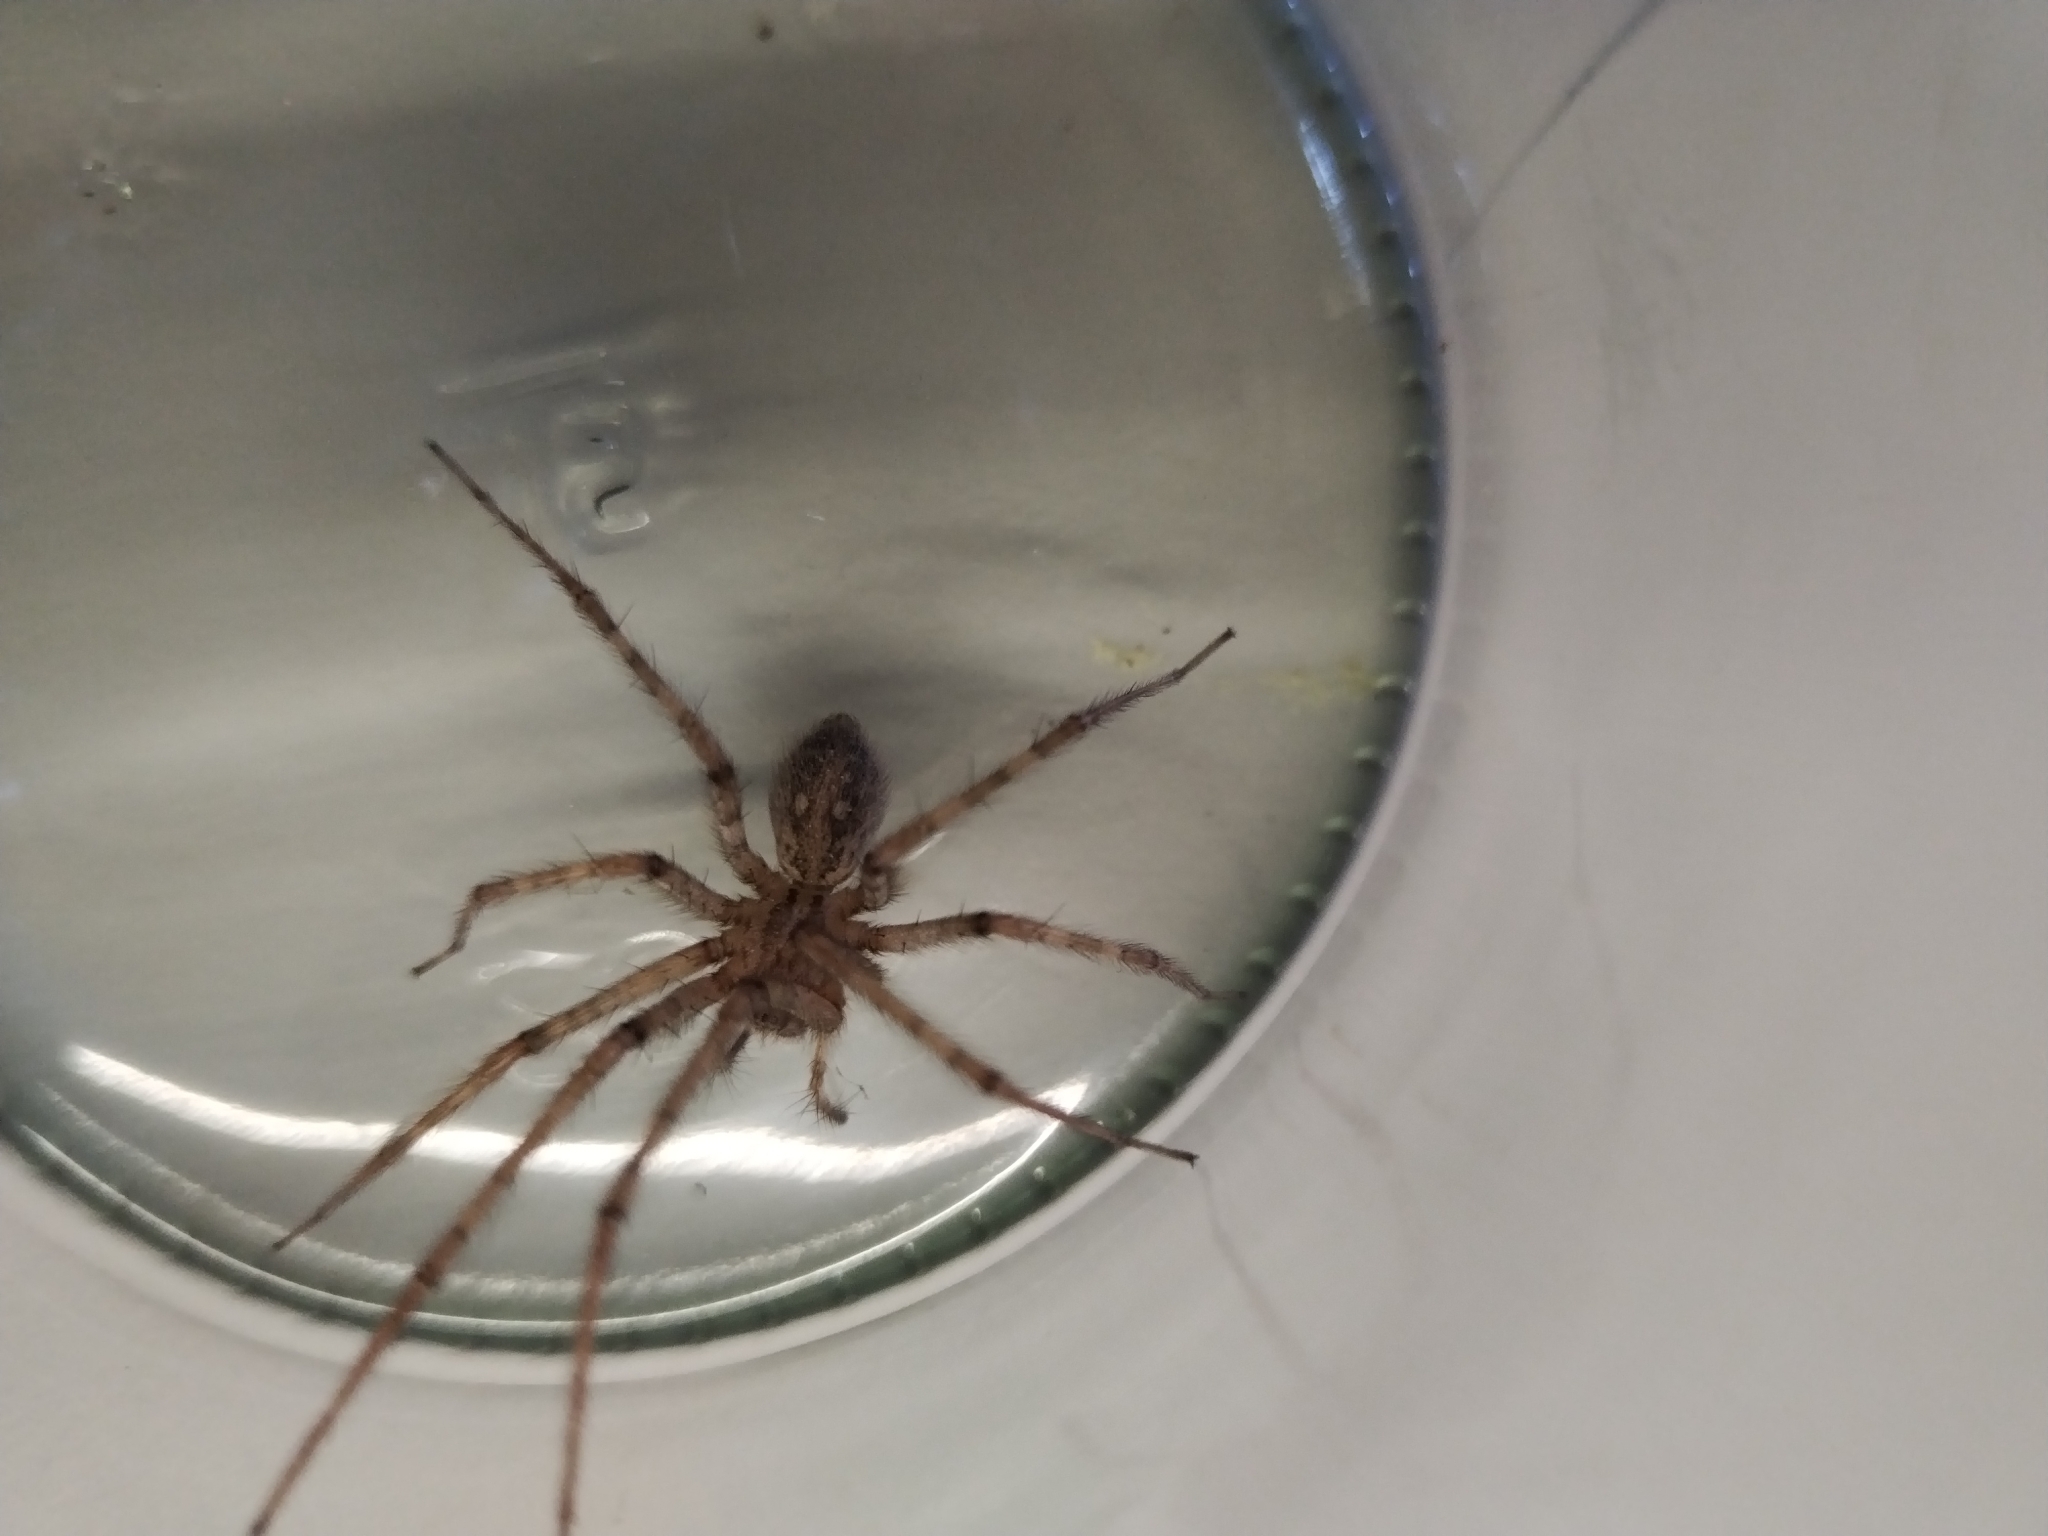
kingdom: Animalia
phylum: Arthropoda
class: Arachnida
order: Araneae
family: Agelenidae
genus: Tegenaria
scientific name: Tegenaria parietina
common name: Cardinal spider
